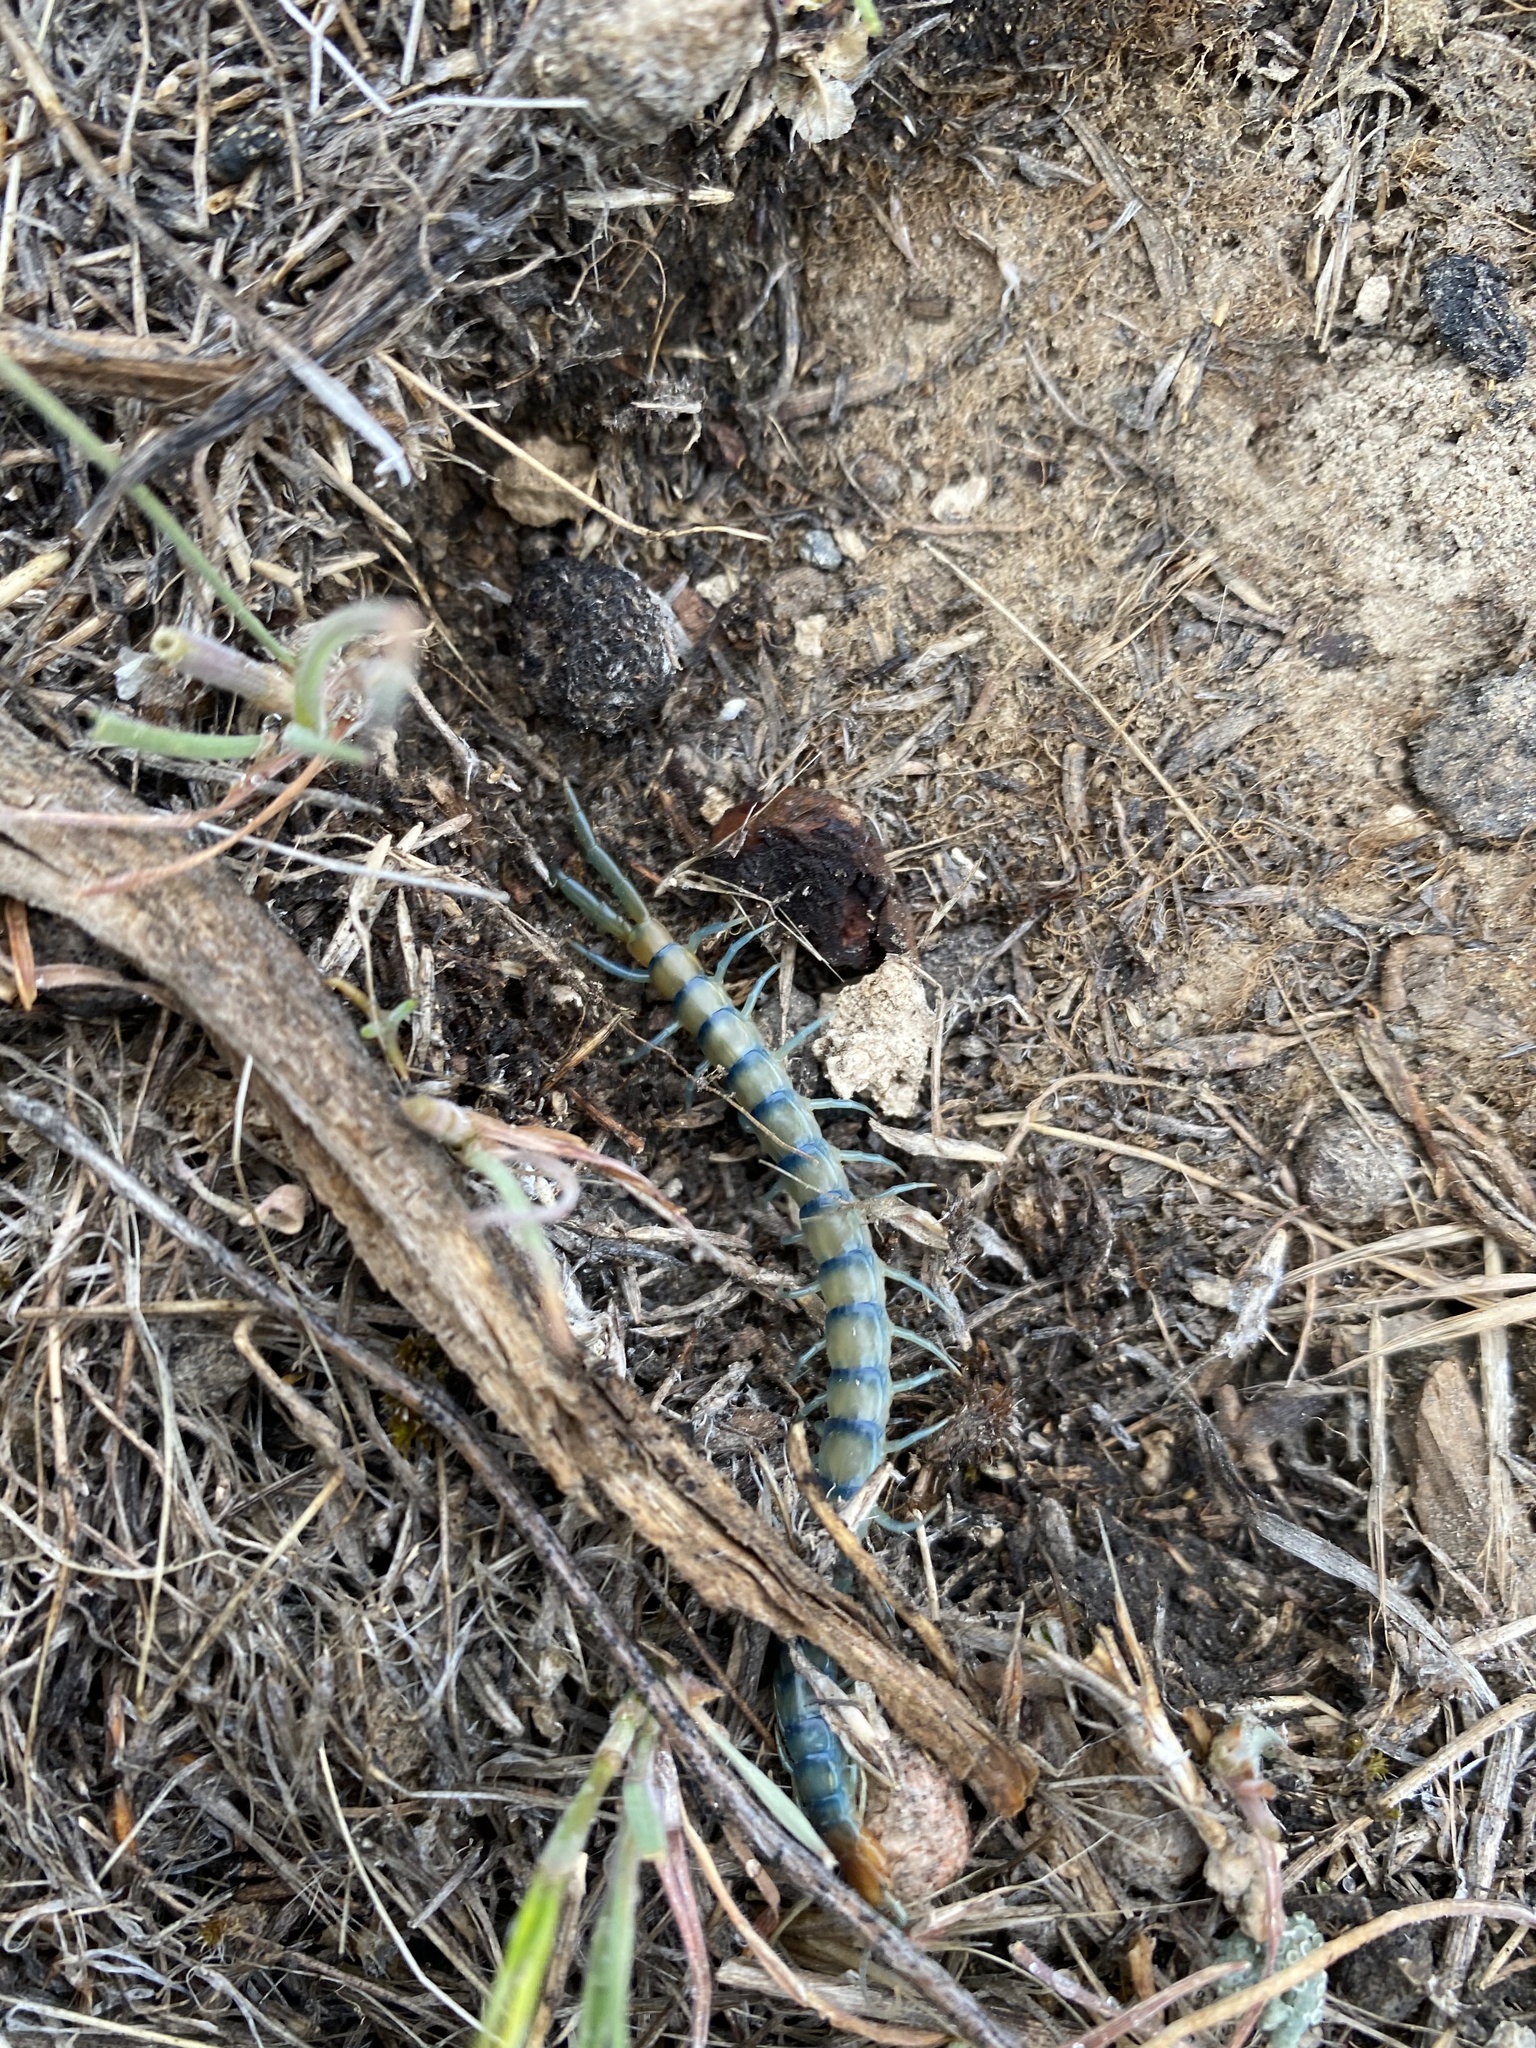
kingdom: Animalia
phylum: Arthropoda
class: Chilopoda
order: Scolopendromorpha
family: Scolopendridae
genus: Scolopendra
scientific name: Scolopendra polymorpha
